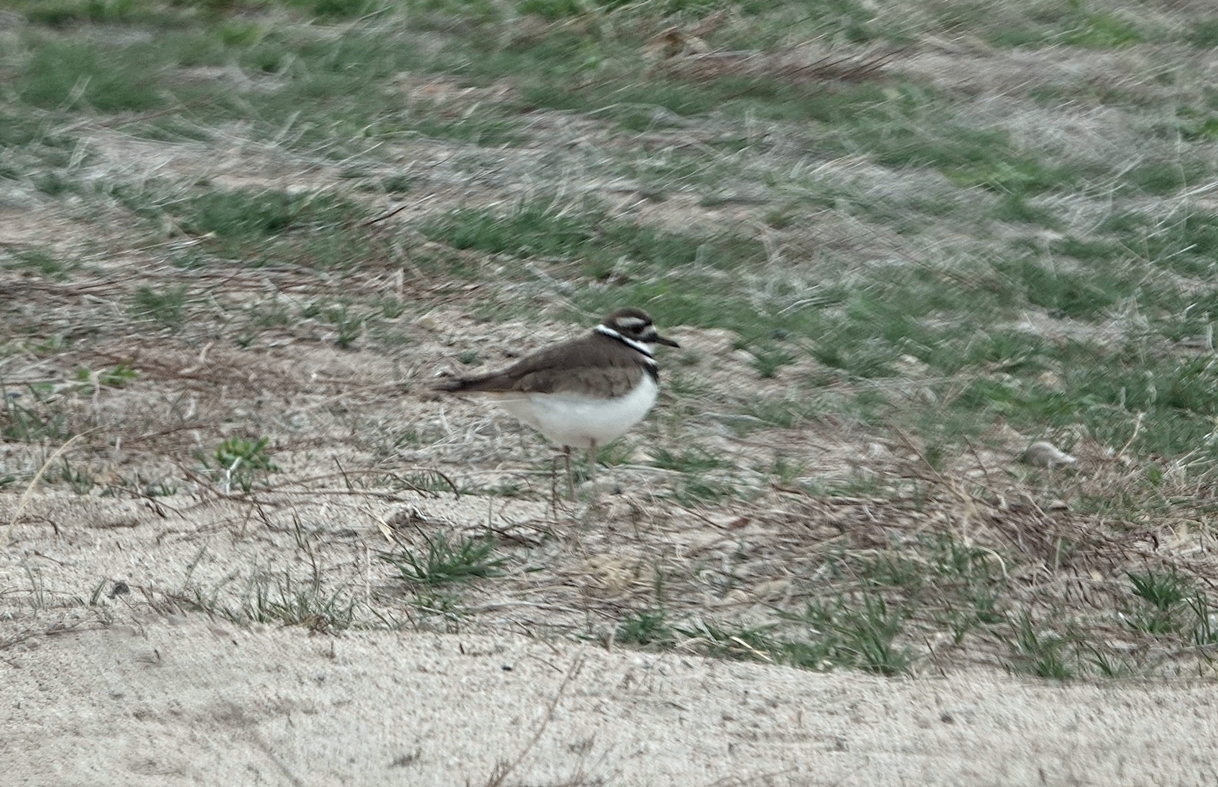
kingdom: Animalia
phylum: Chordata
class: Aves
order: Charadriiformes
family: Charadriidae
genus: Charadrius
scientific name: Charadrius vociferus
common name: Killdeer
